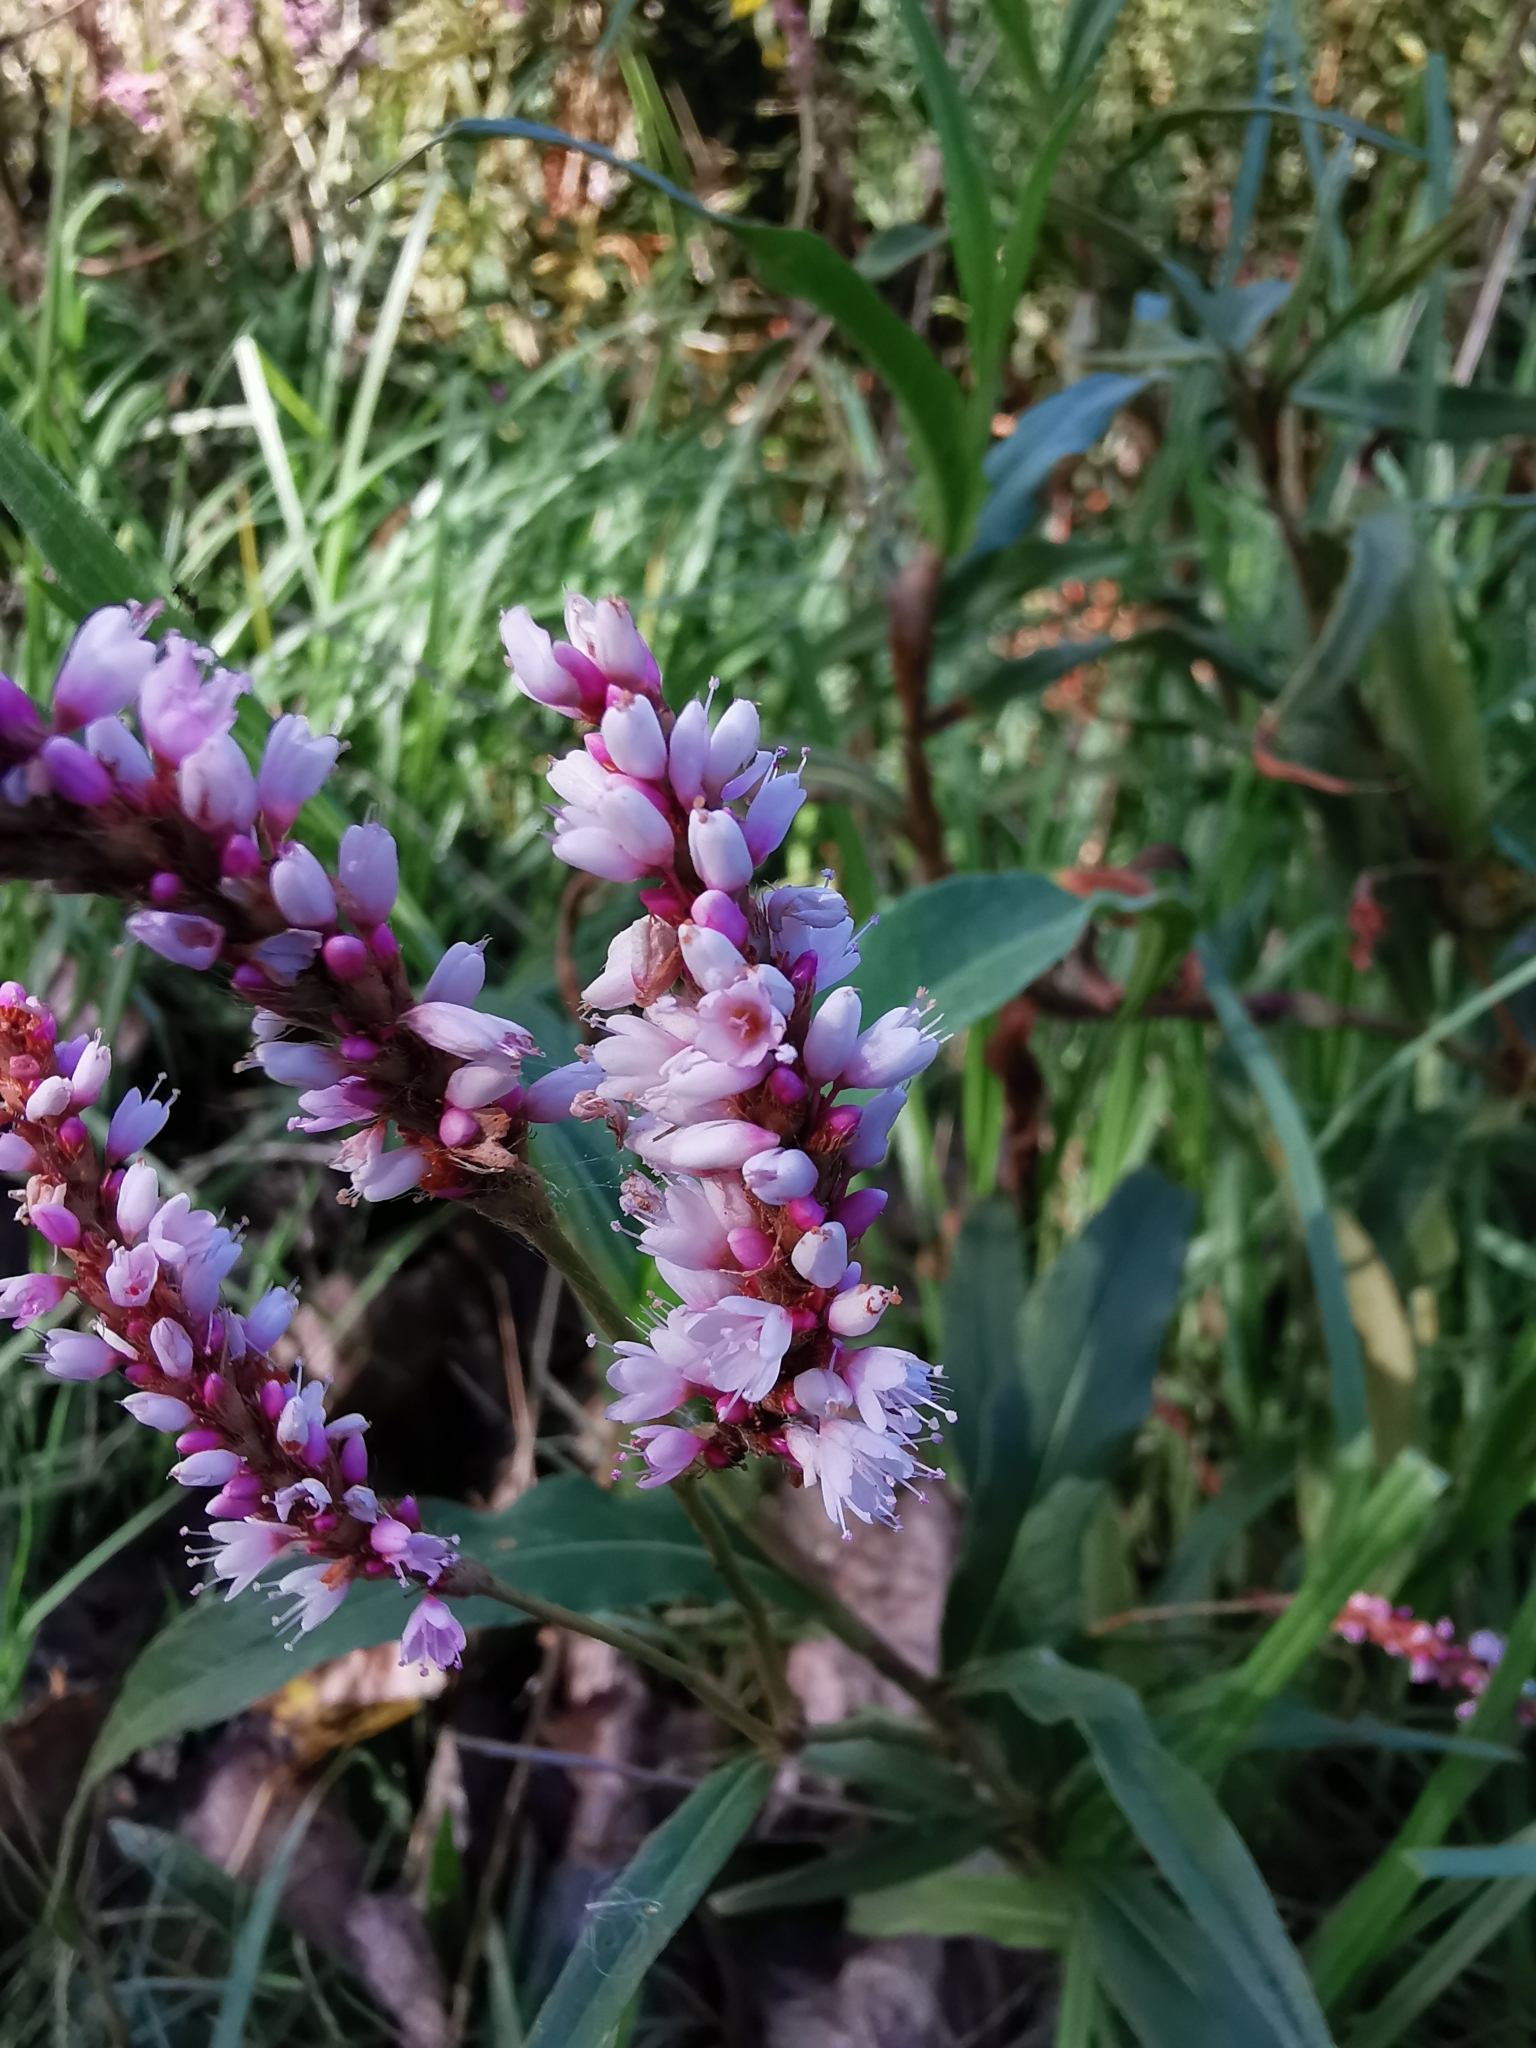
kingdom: Plantae
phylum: Tracheophyta
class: Magnoliopsida
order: Caryophyllales
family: Polygonaceae
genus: Persicaria
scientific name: Persicaria madagascariensis
